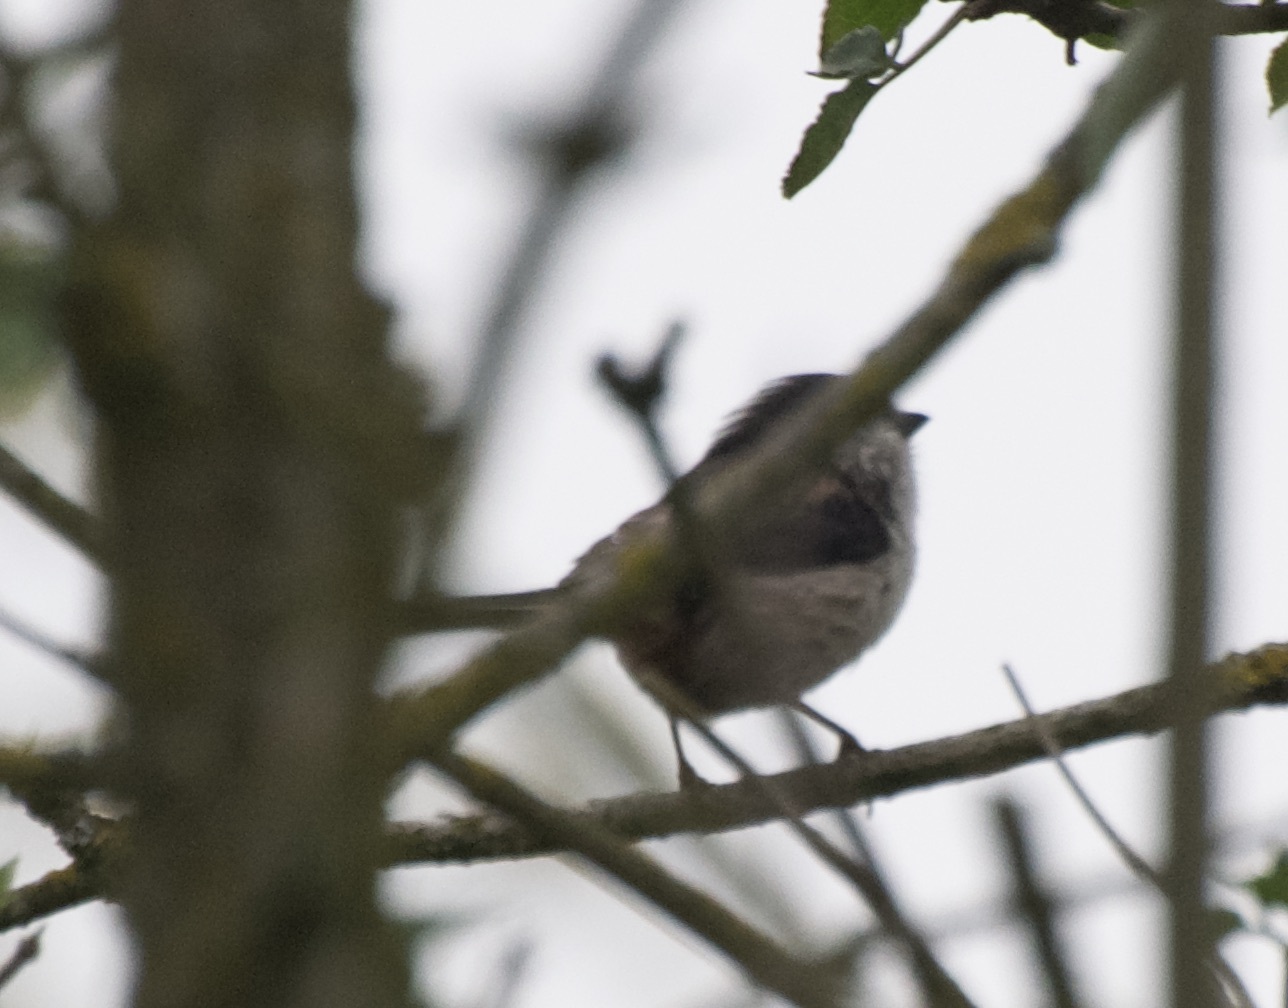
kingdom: Animalia
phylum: Chordata
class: Aves
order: Passeriformes
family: Aegithalidae
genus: Aegithalos
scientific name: Aegithalos caudatus
